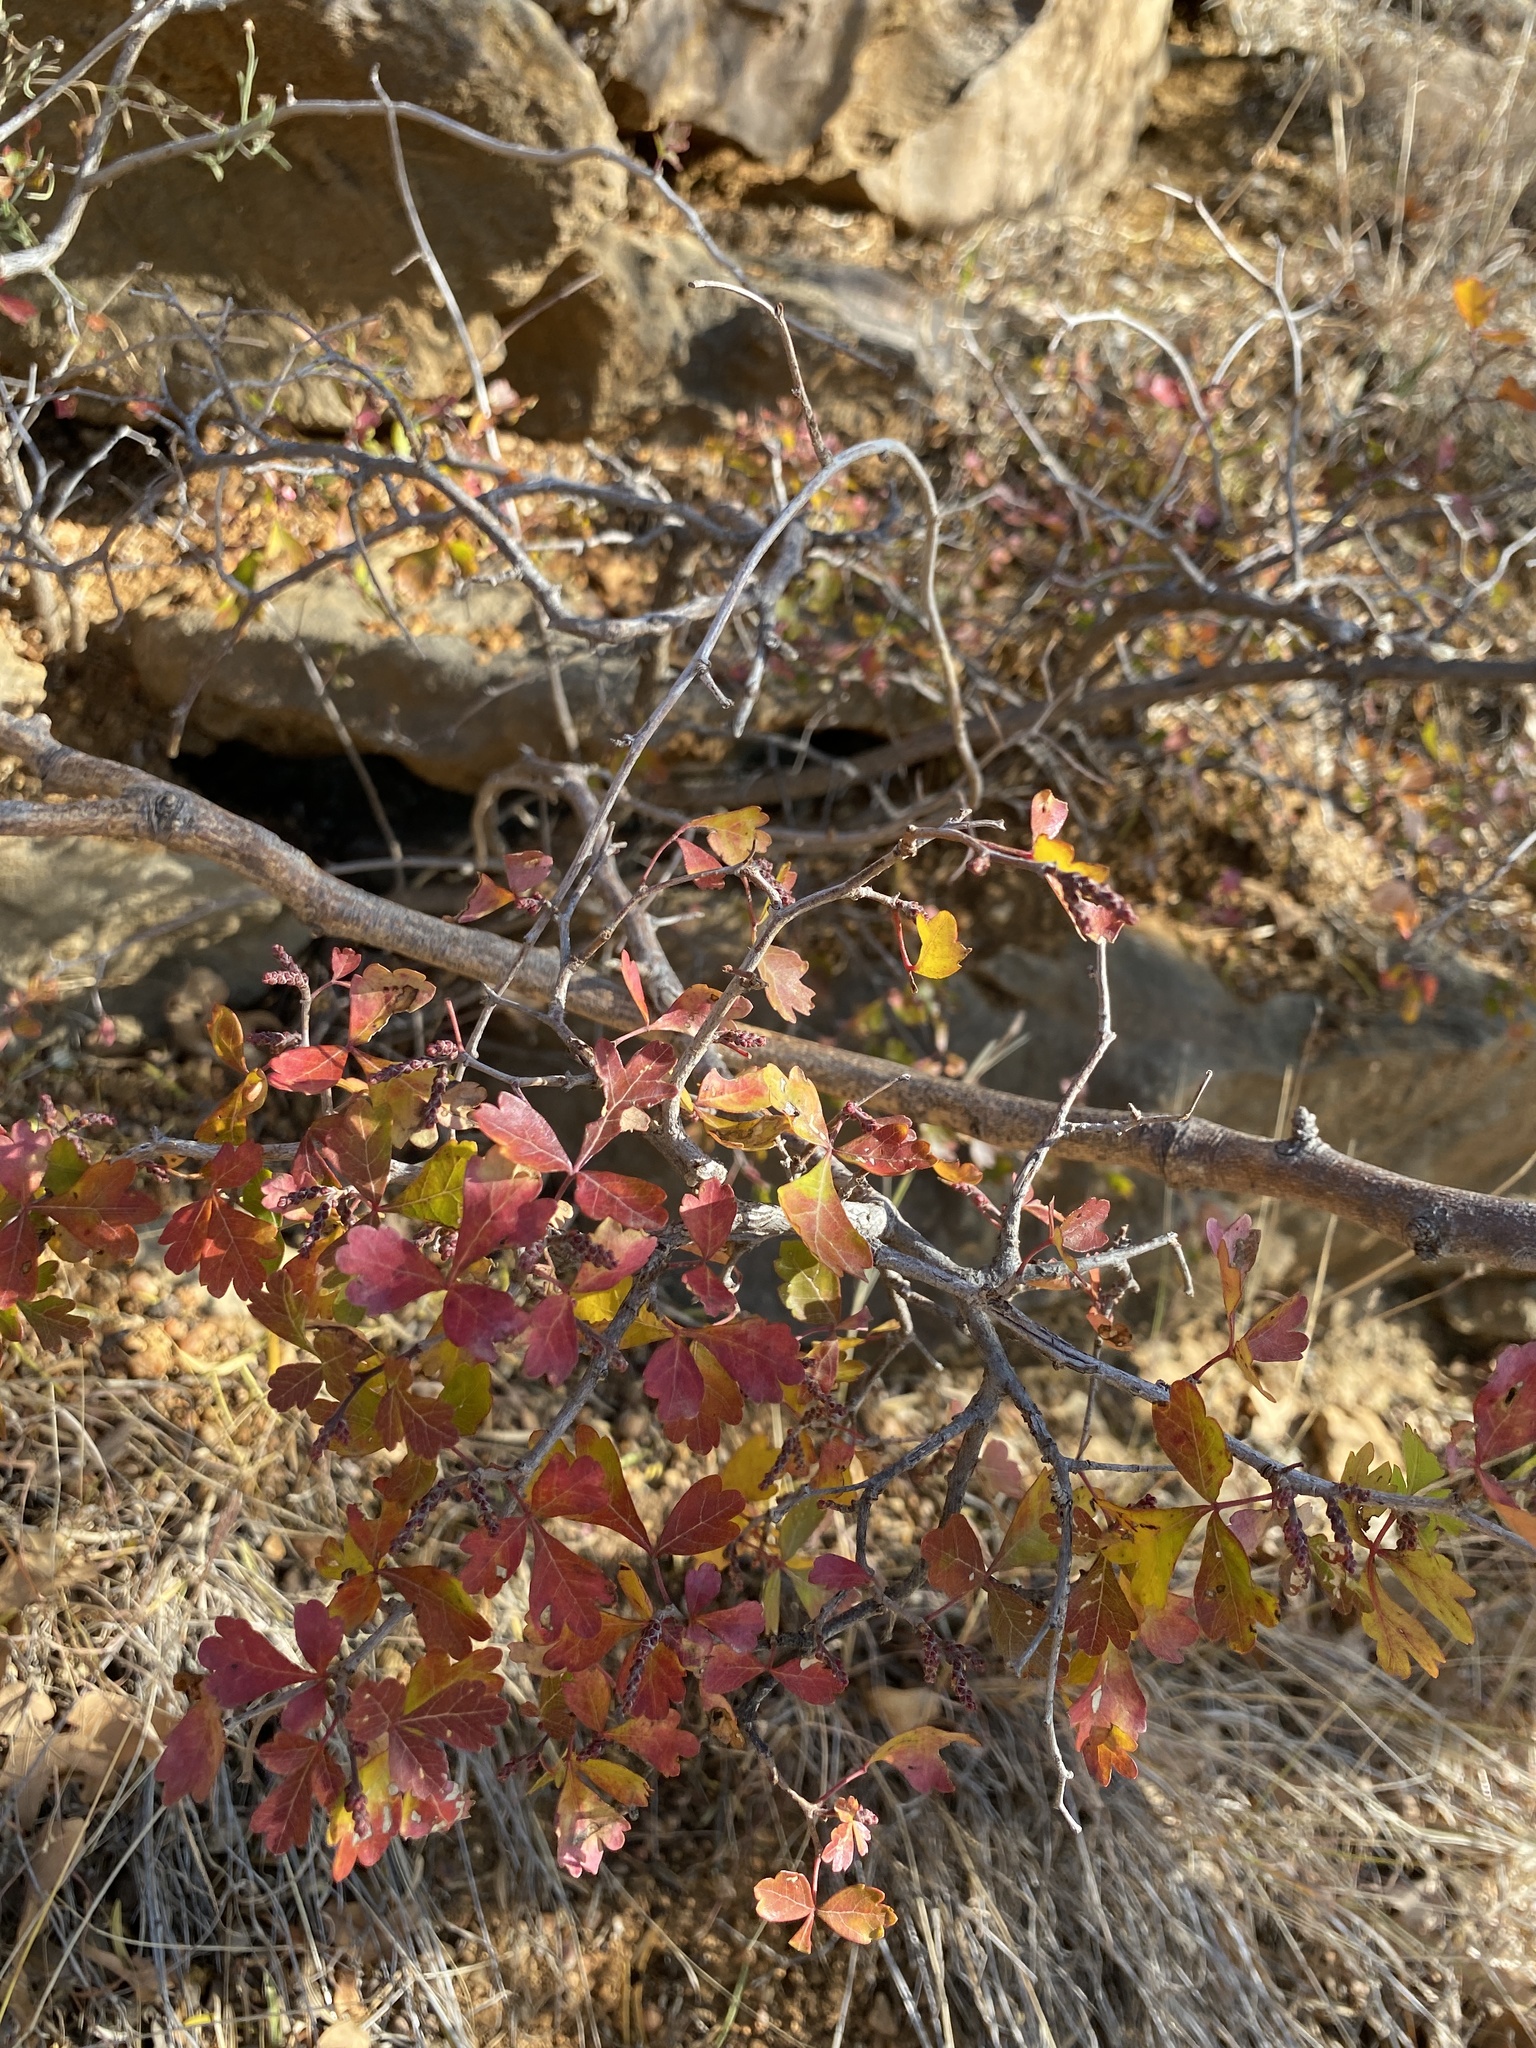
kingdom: Plantae
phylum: Tracheophyta
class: Magnoliopsida
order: Sapindales
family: Anacardiaceae
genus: Rhus
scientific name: Rhus aromatica
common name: Aromatic sumac
